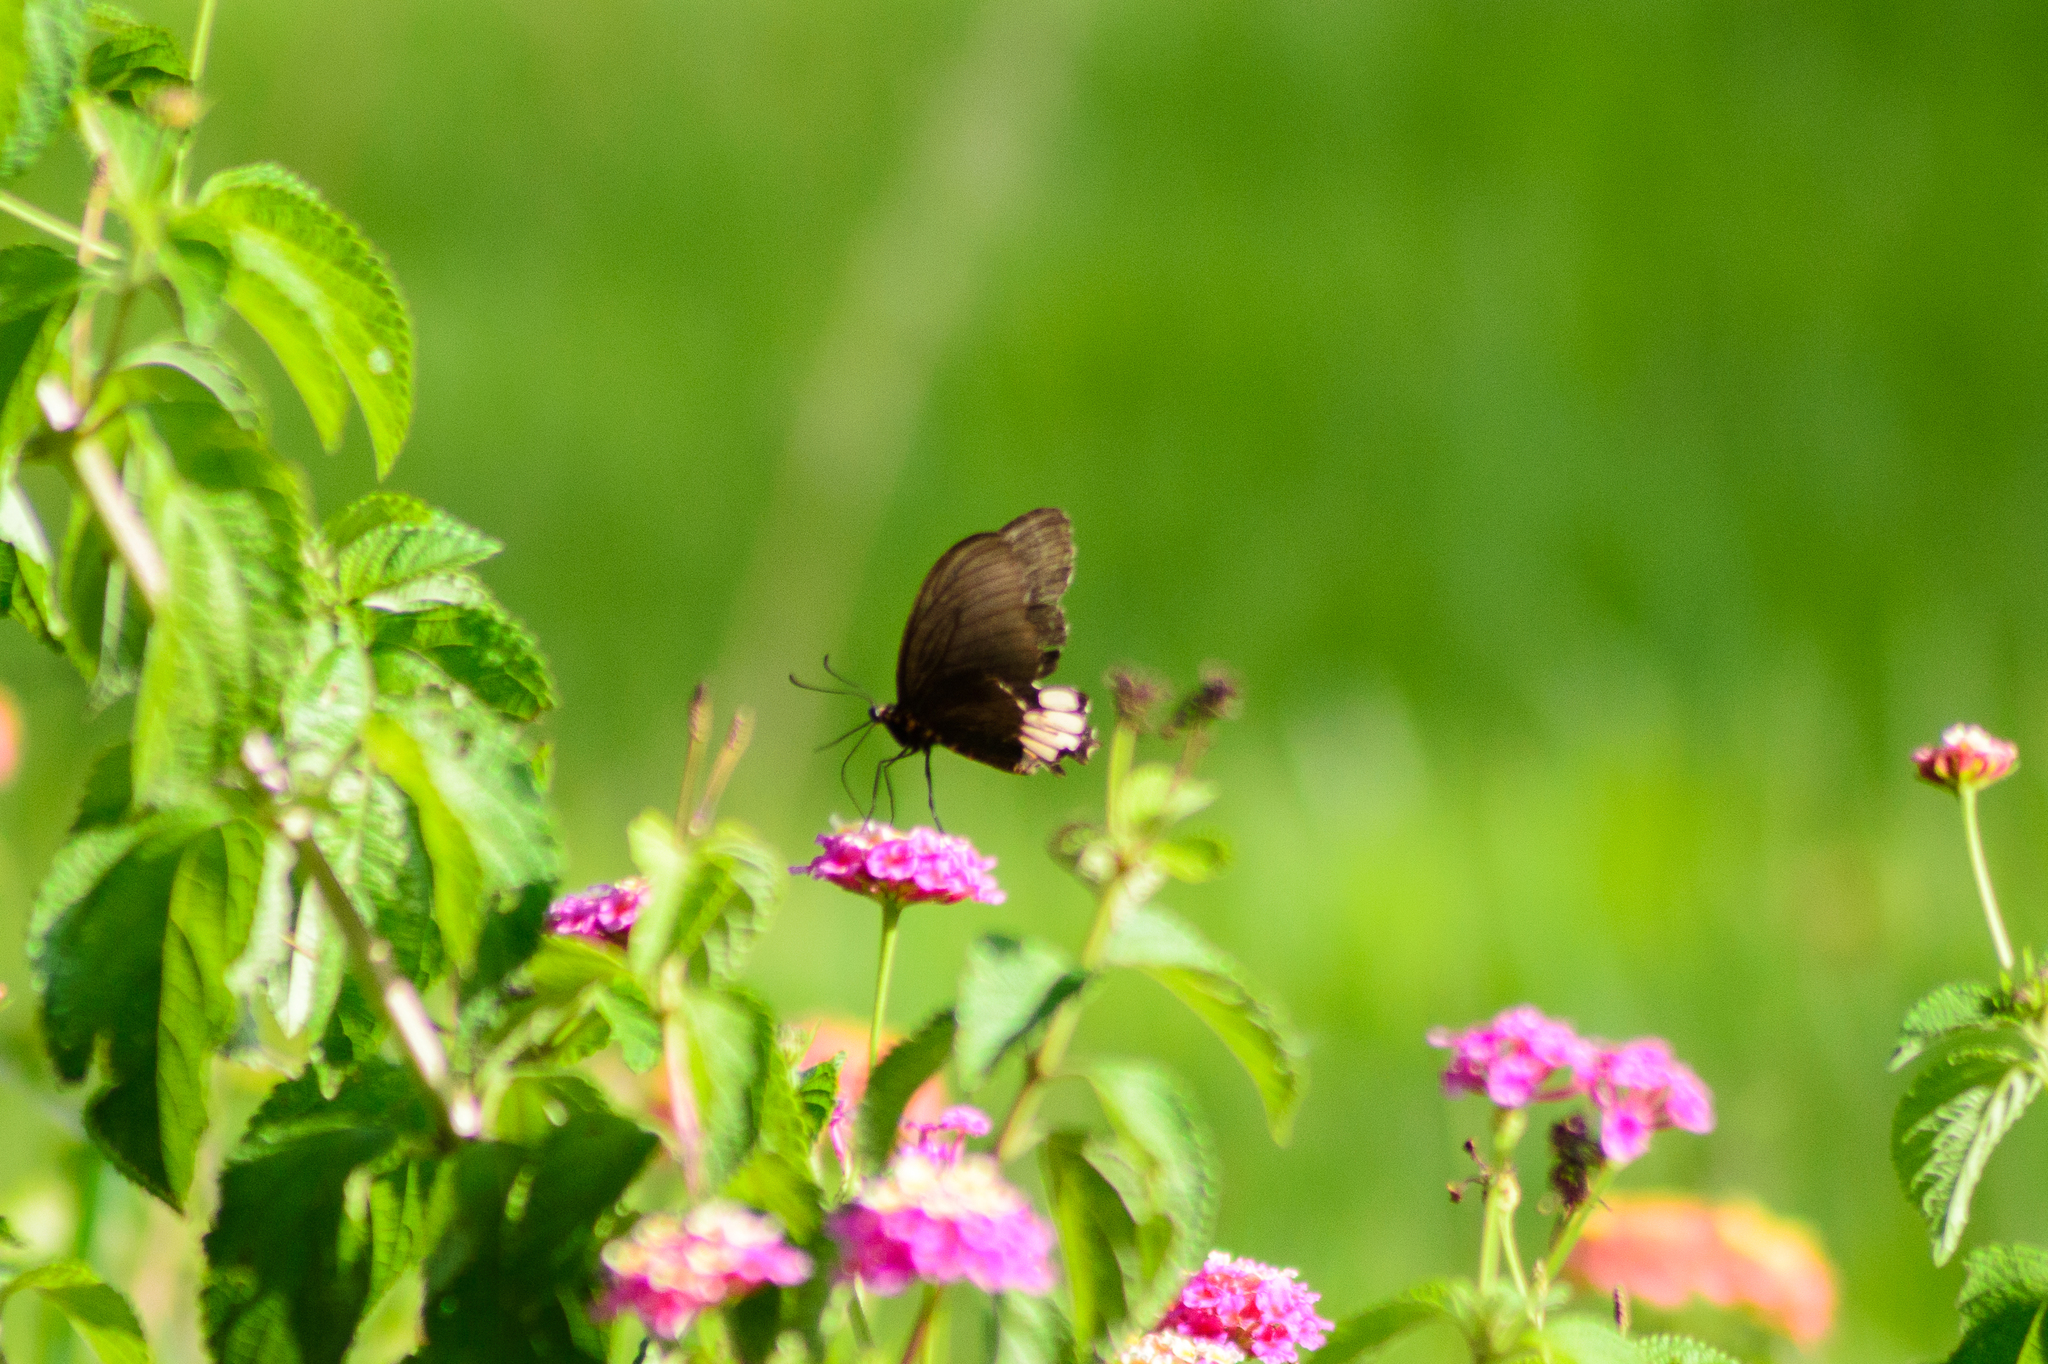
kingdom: Animalia
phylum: Arthropoda
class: Insecta
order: Lepidoptera
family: Papilionidae
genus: Parides
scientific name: Parides erithalion
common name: Variable cattleheart
